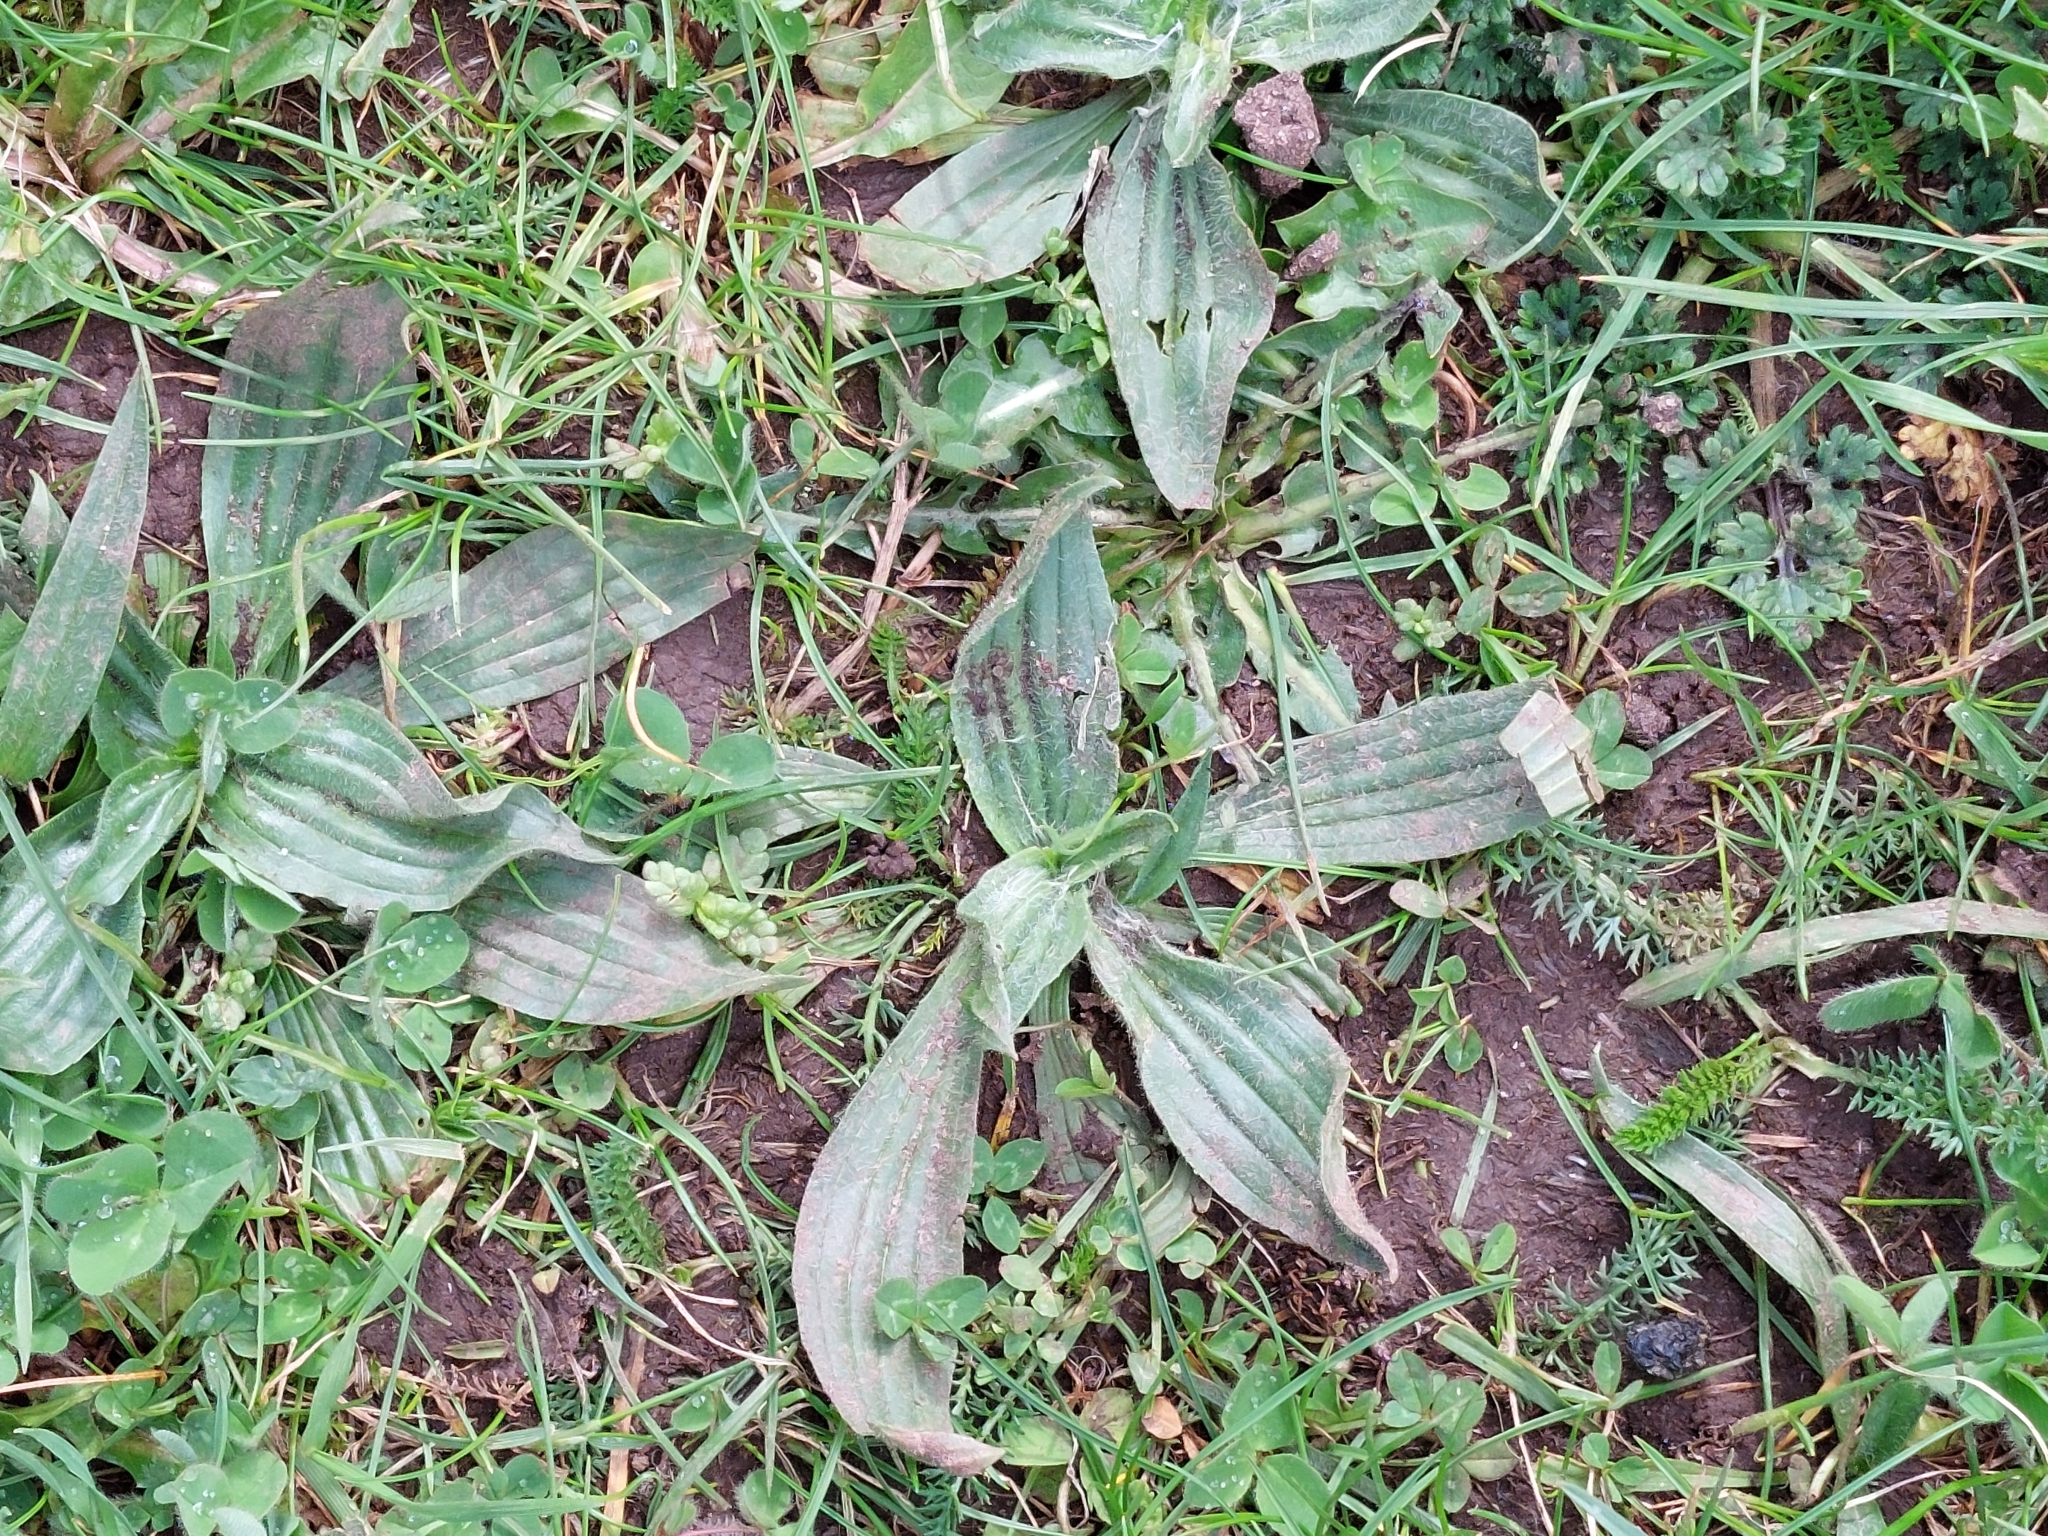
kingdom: Plantae
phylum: Tracheophyta
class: Magnoliopsida
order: Lamiales
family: Plantaginaceae
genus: Plantago
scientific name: Plantago lanceolata
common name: Ribwort plantain
